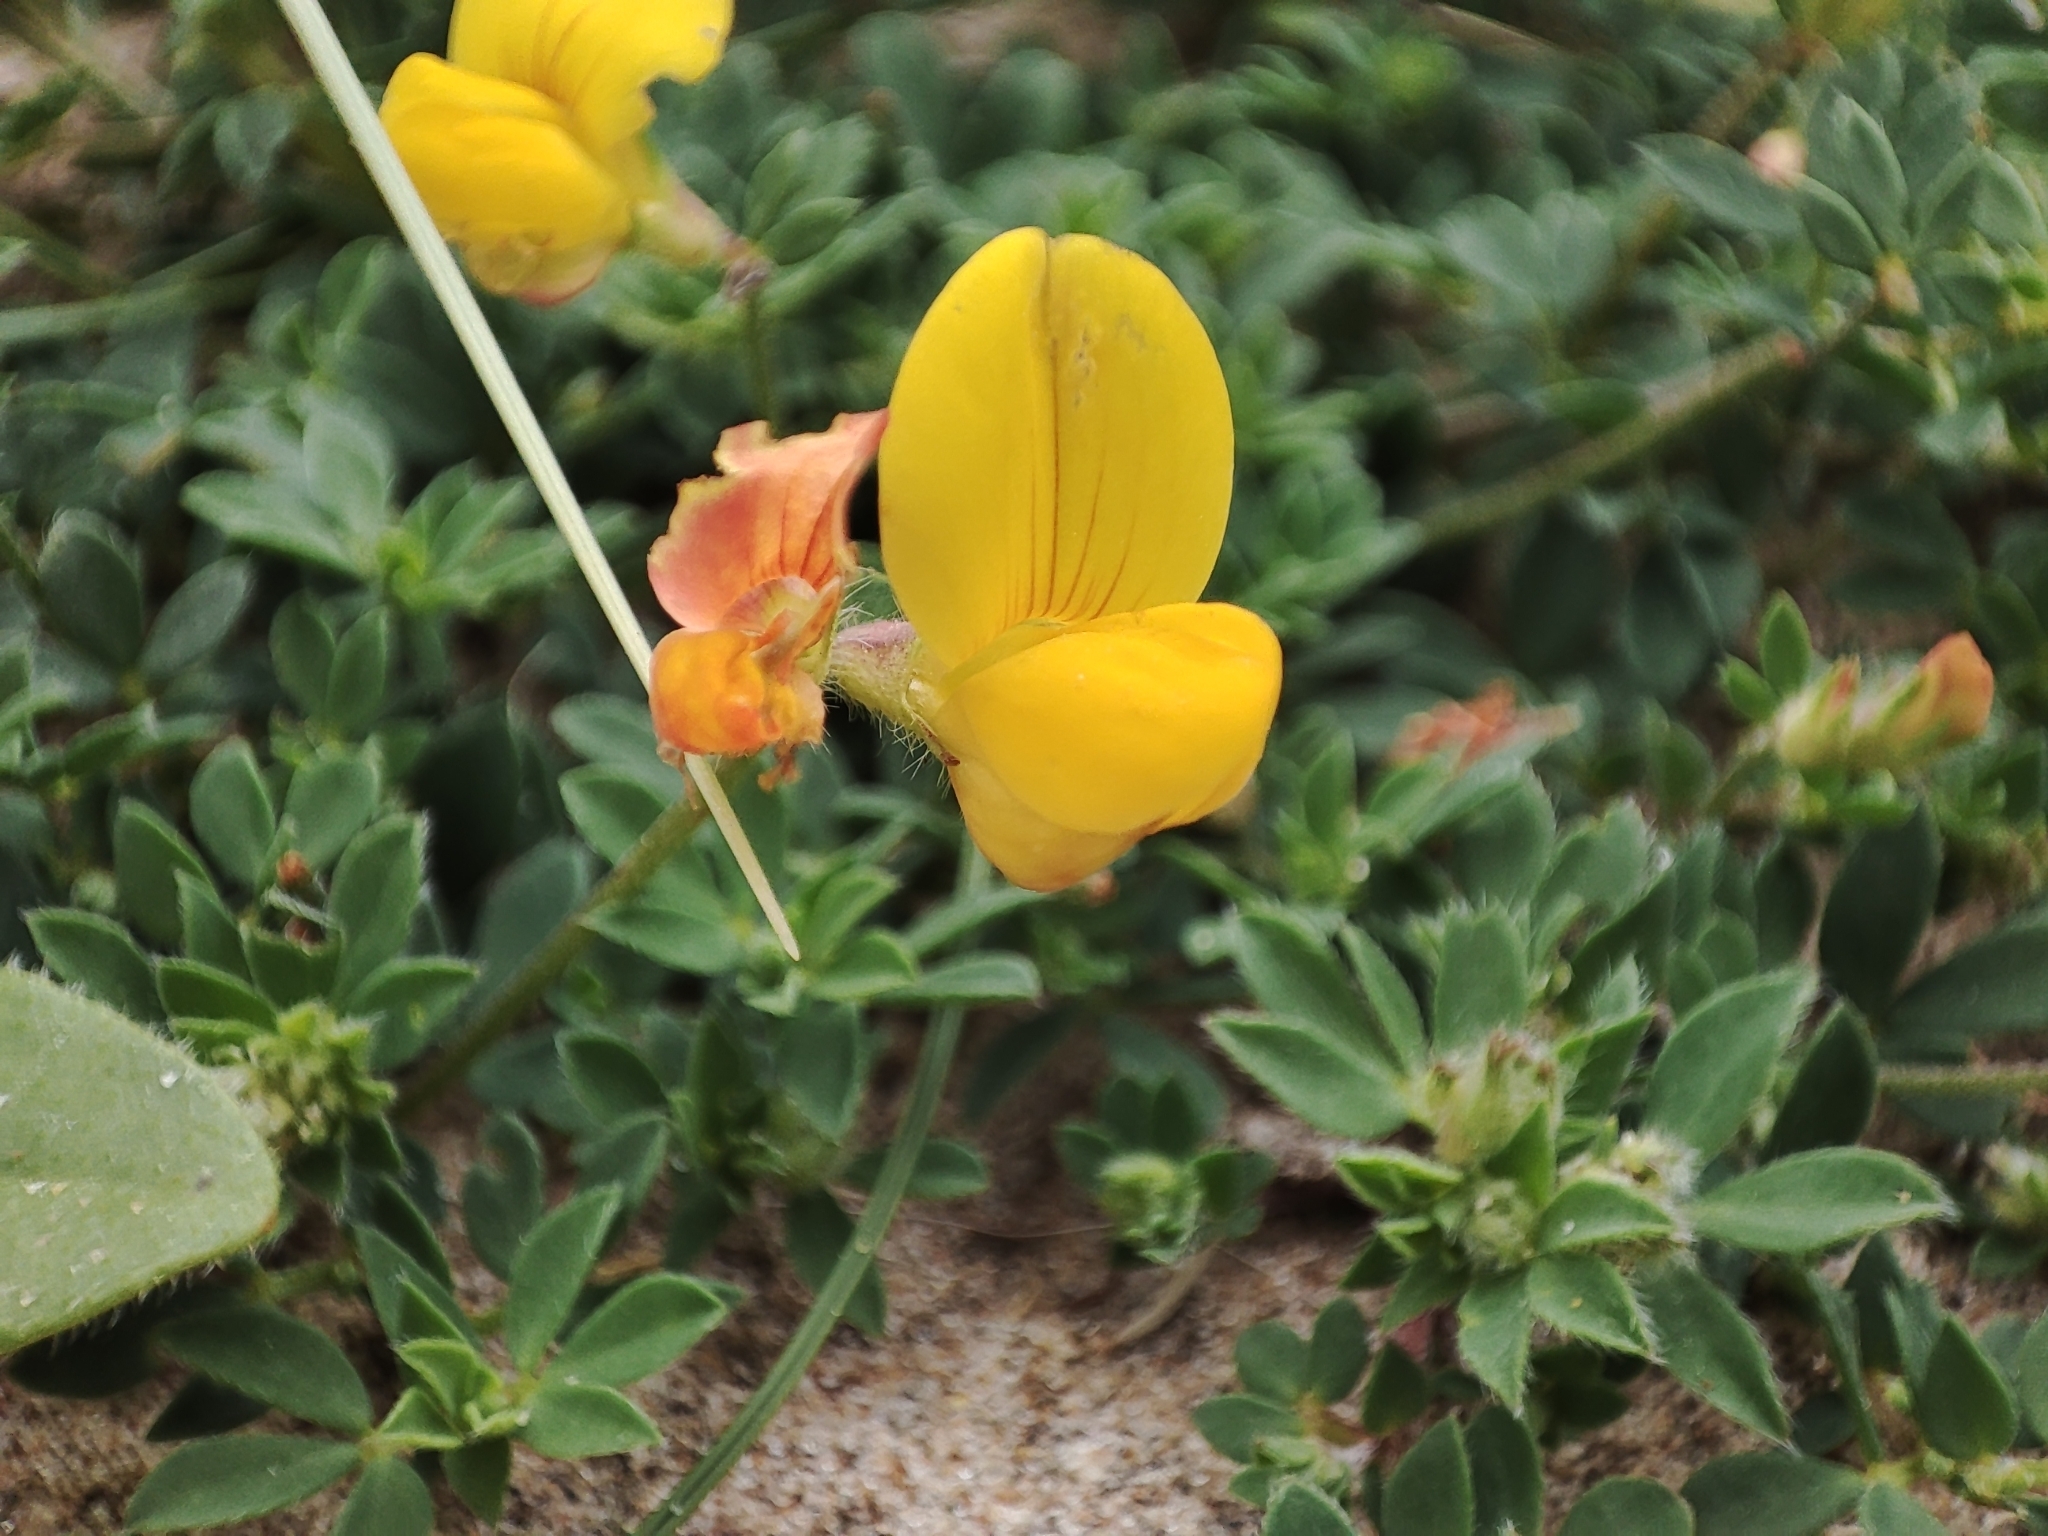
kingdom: Plantae
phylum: Tracheophyta
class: Magnoliopsida
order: Fabales
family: Fabaceae
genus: Lotus
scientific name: Lotus corniculatus
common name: Common bird's-foot-trefoil
